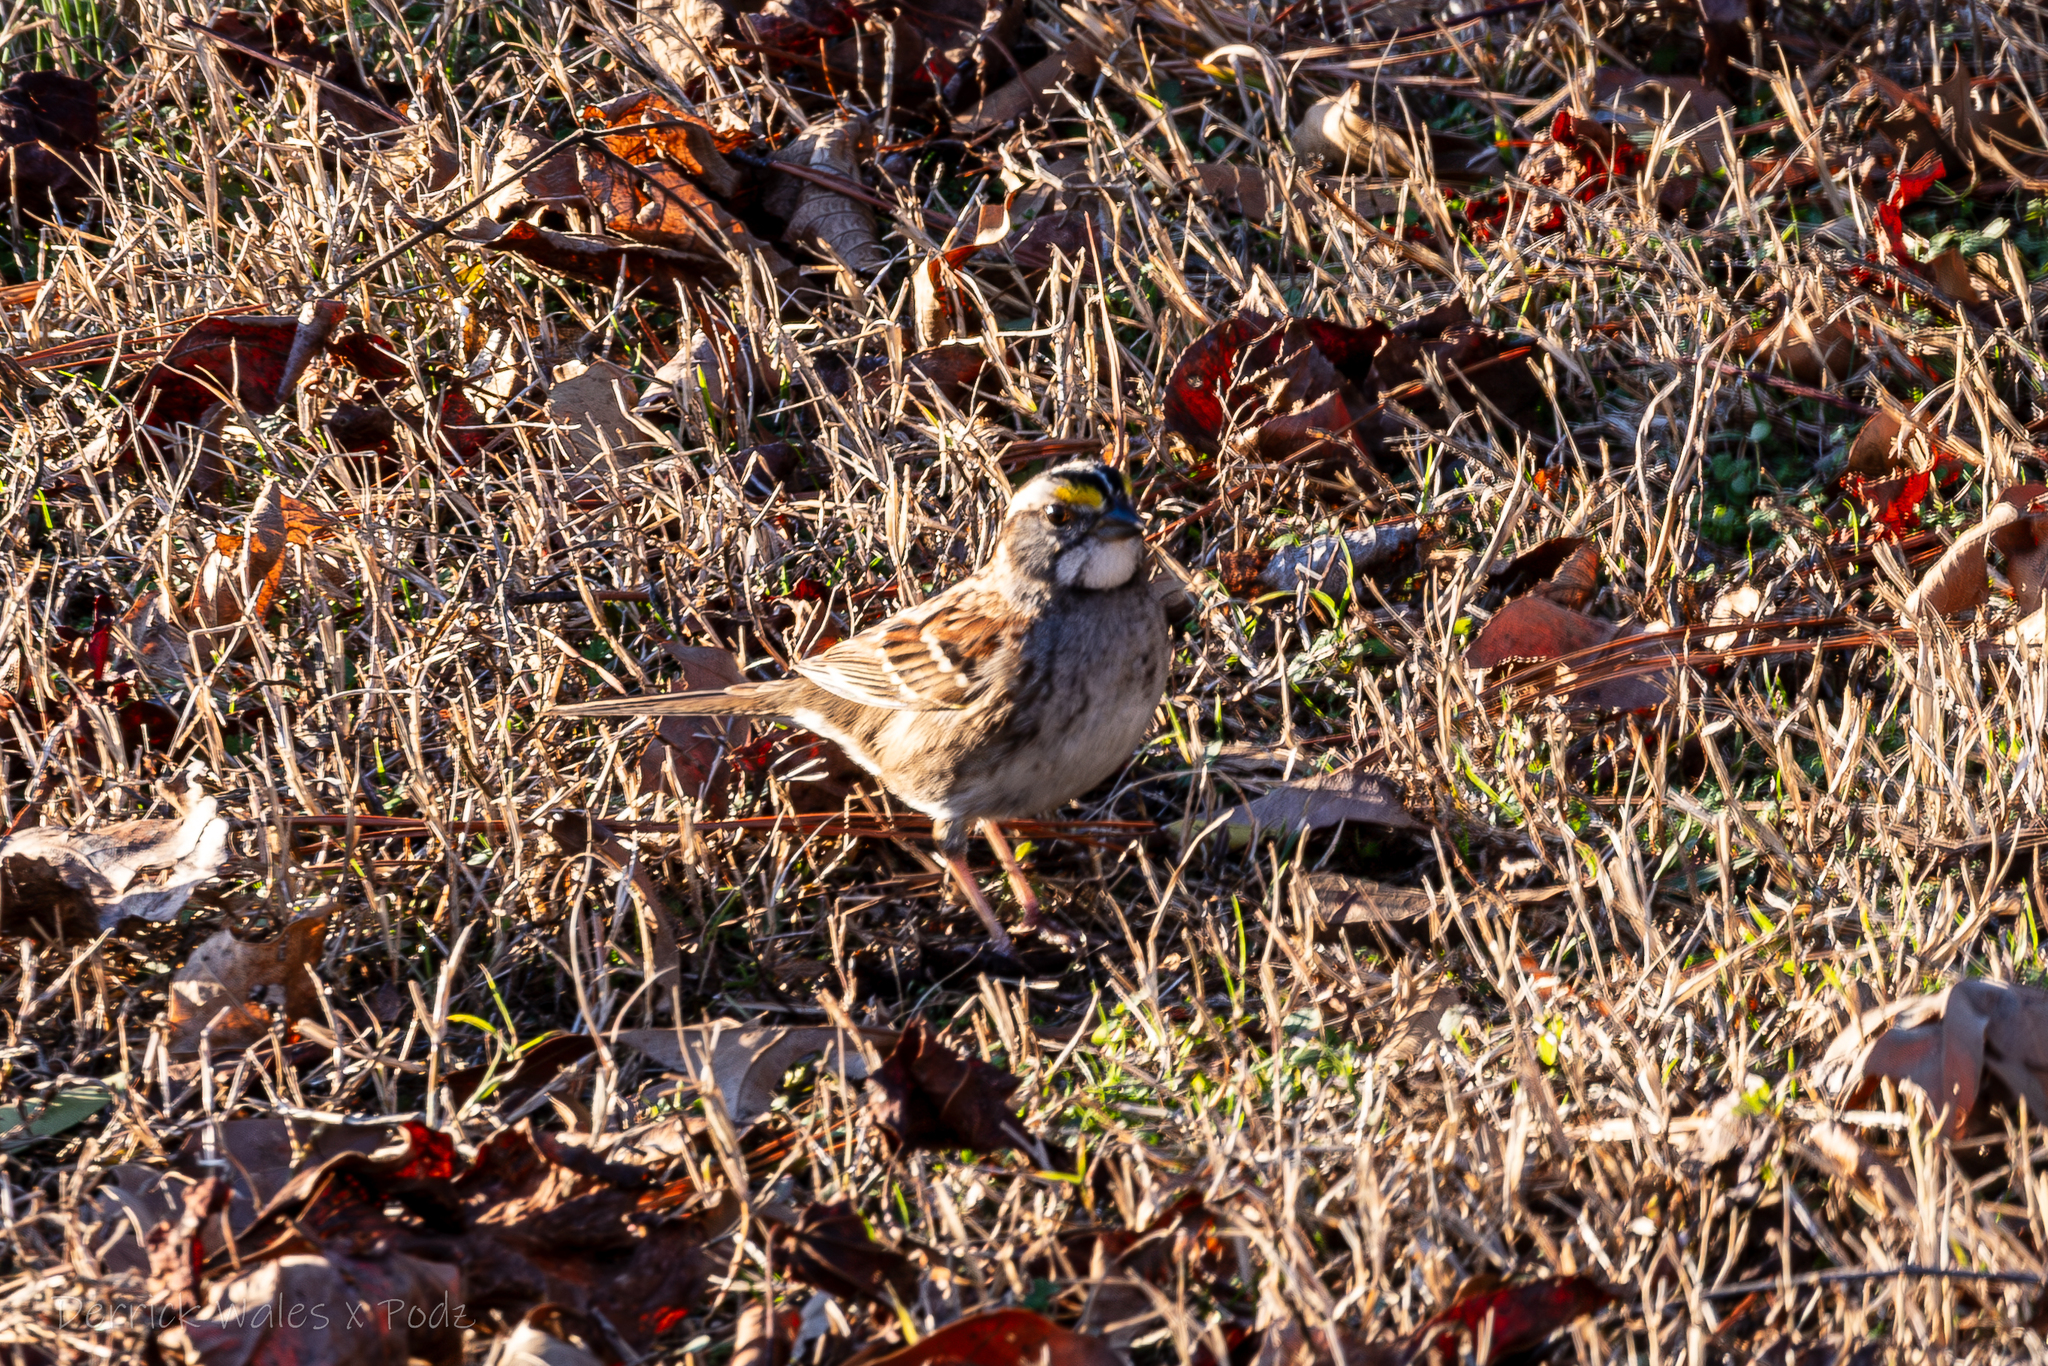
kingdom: Animalia
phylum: Chordata
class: Aves
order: Passeriformes
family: Passerellidae
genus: Zonotrichia
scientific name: Zonotrichia albicollis
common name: White-throated sparrow
